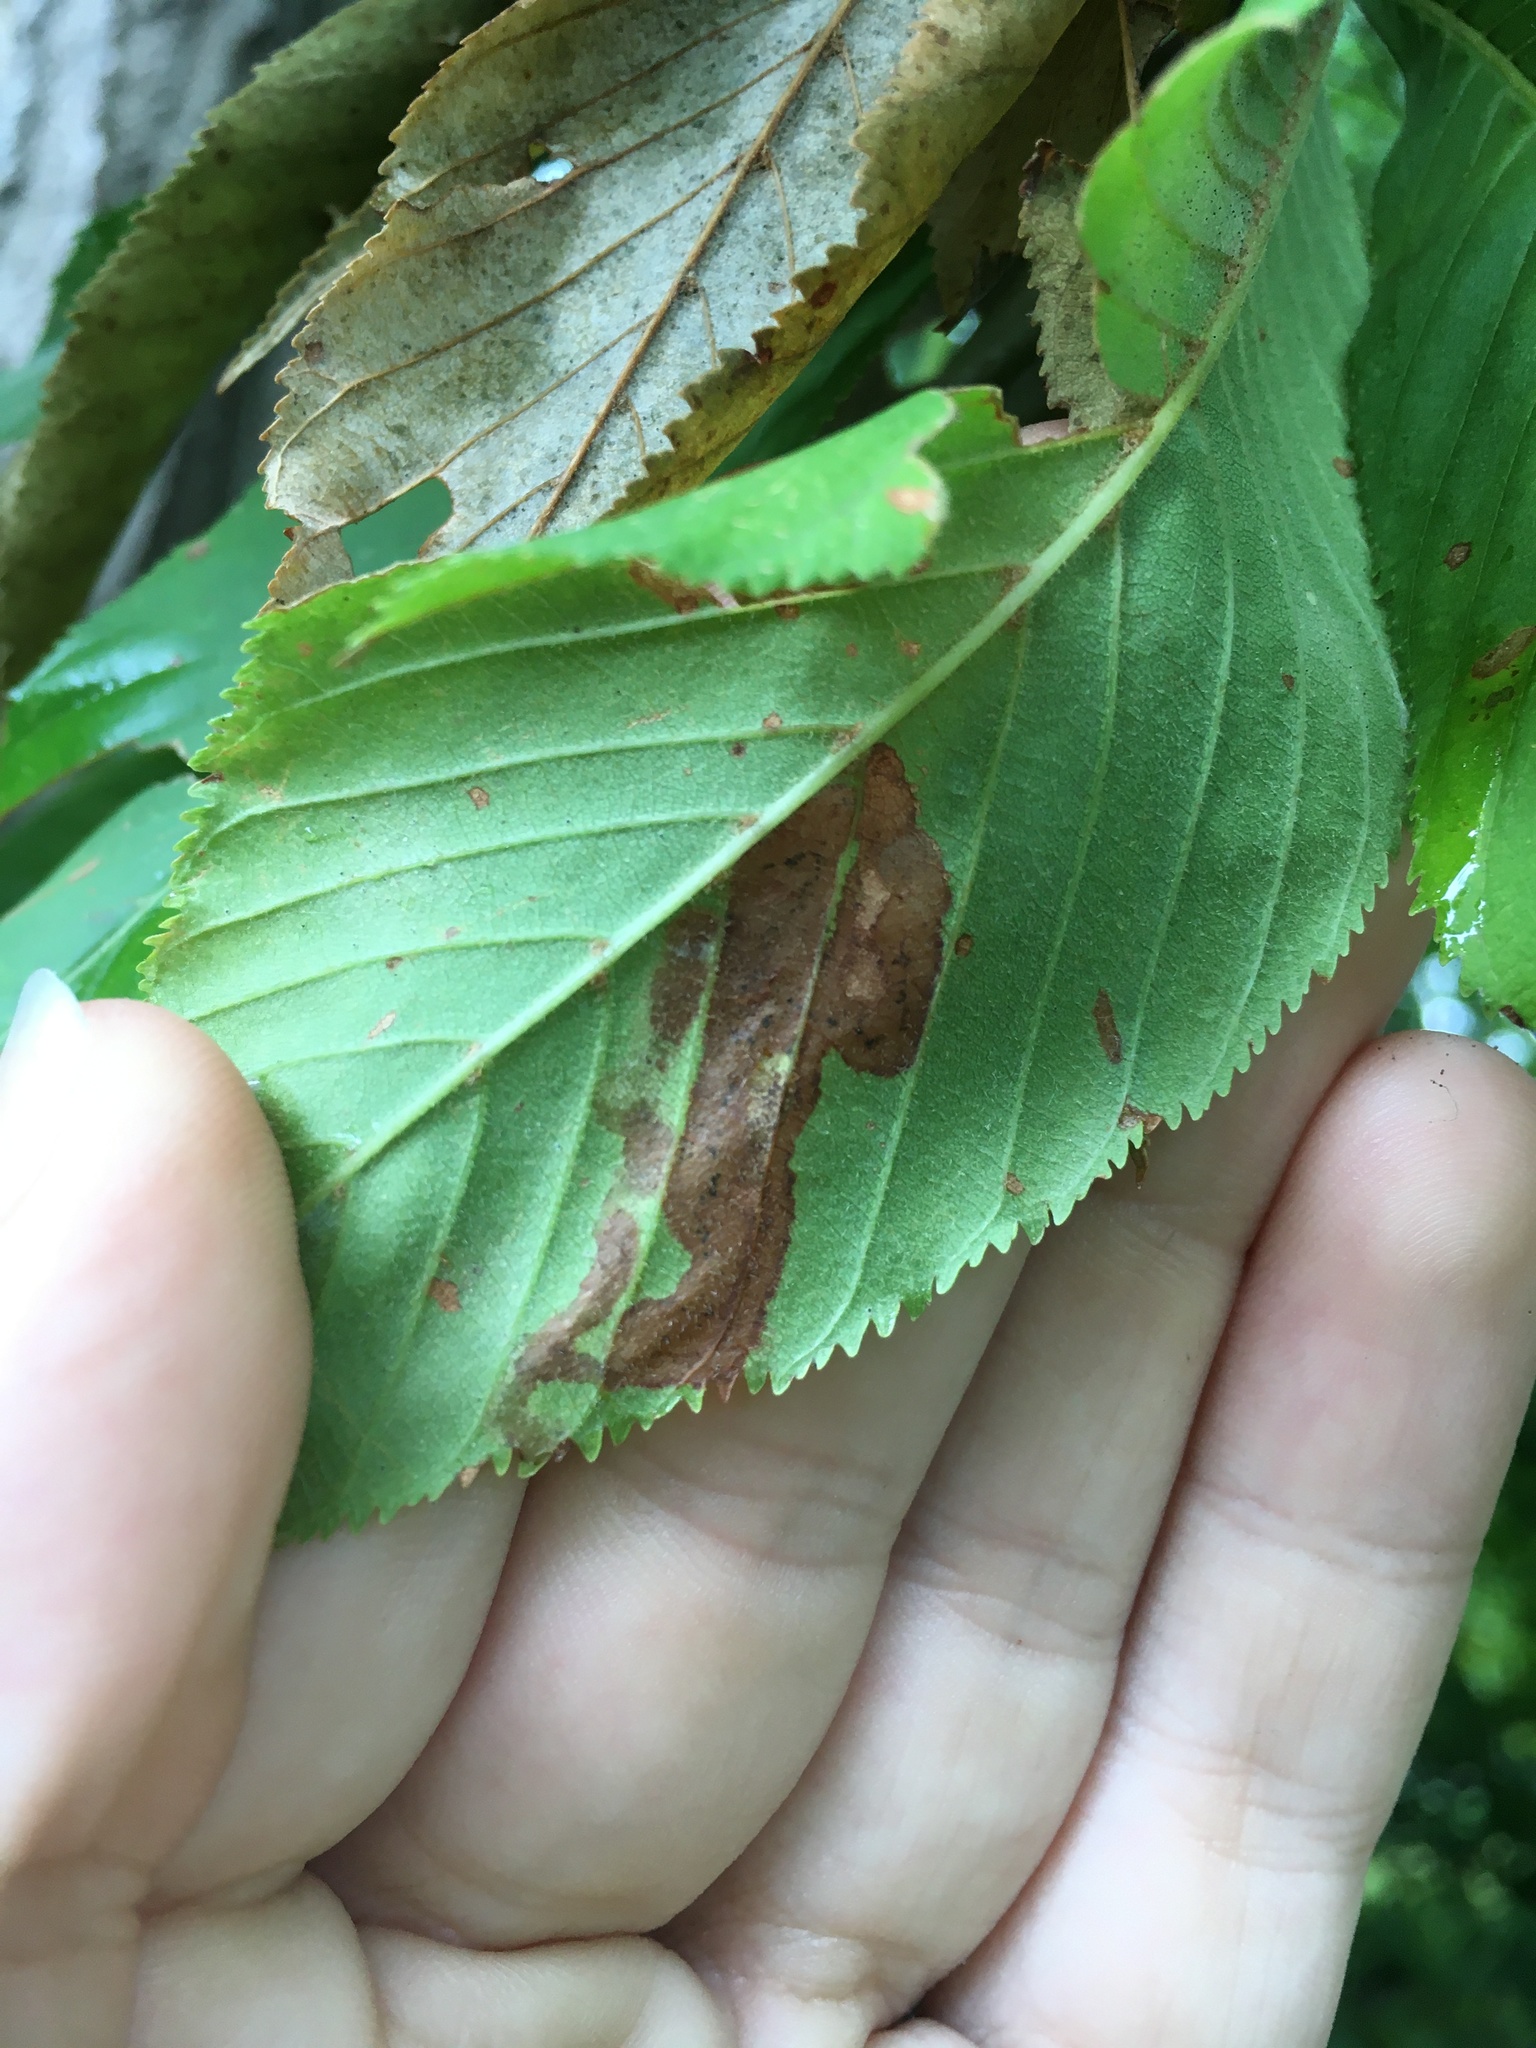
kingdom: Animalia
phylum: Arthropoda
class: Insecta
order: Diptera
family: Agromyzidae
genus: Phytomyza
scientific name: Phytomyza aesculi
